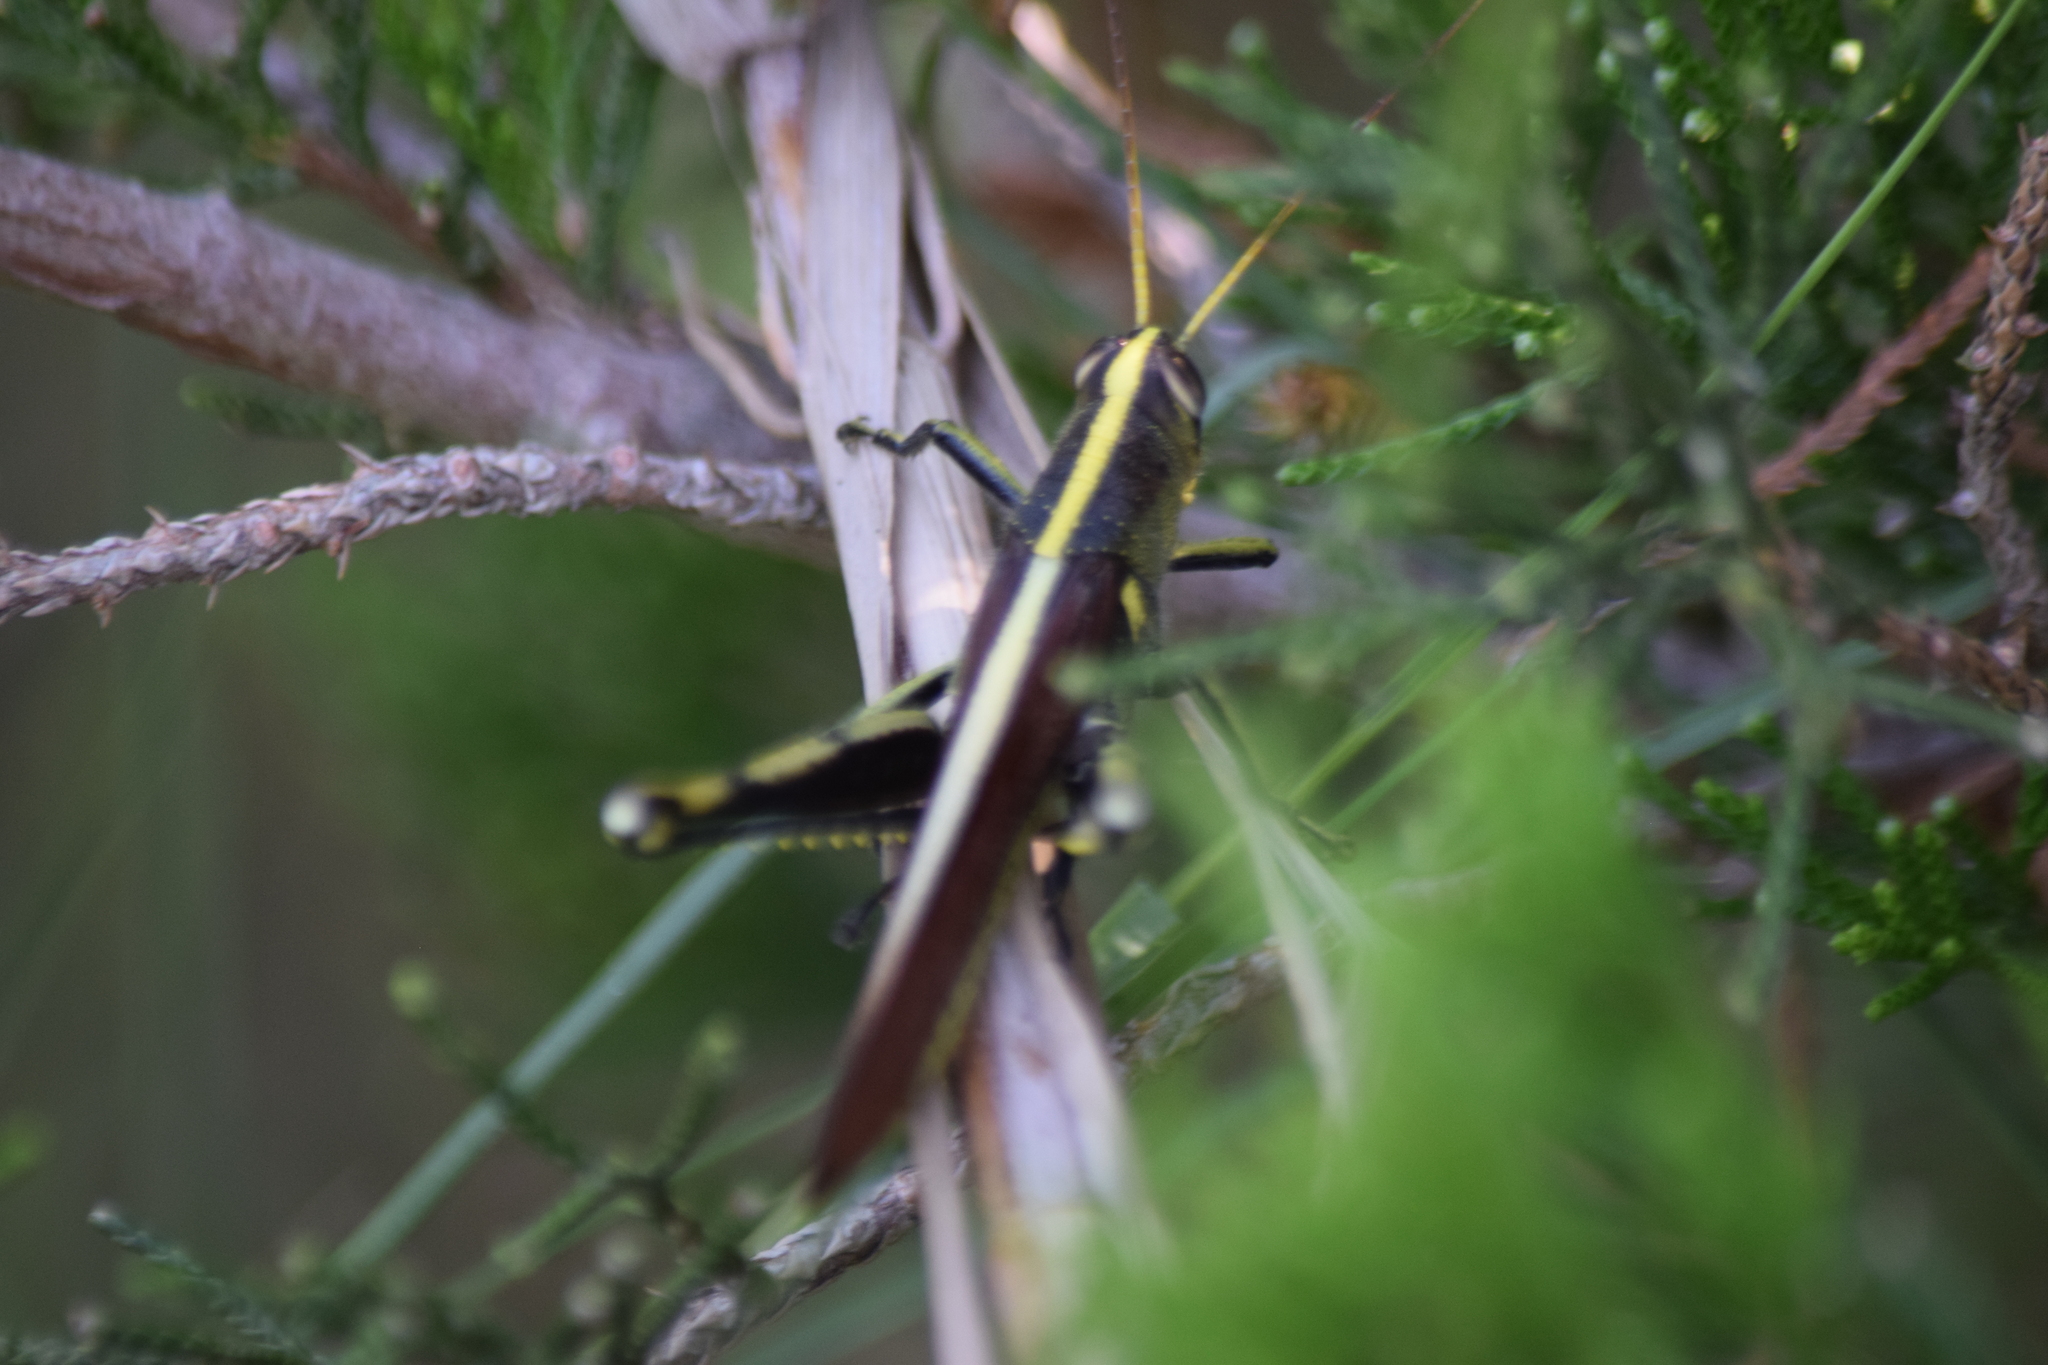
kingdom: Animalia
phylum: Arthropoda
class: Insecta
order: Orthoptera
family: Acrididae
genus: Schistocerca
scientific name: Schistocerca obscura
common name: Obscure bird grasshopper
